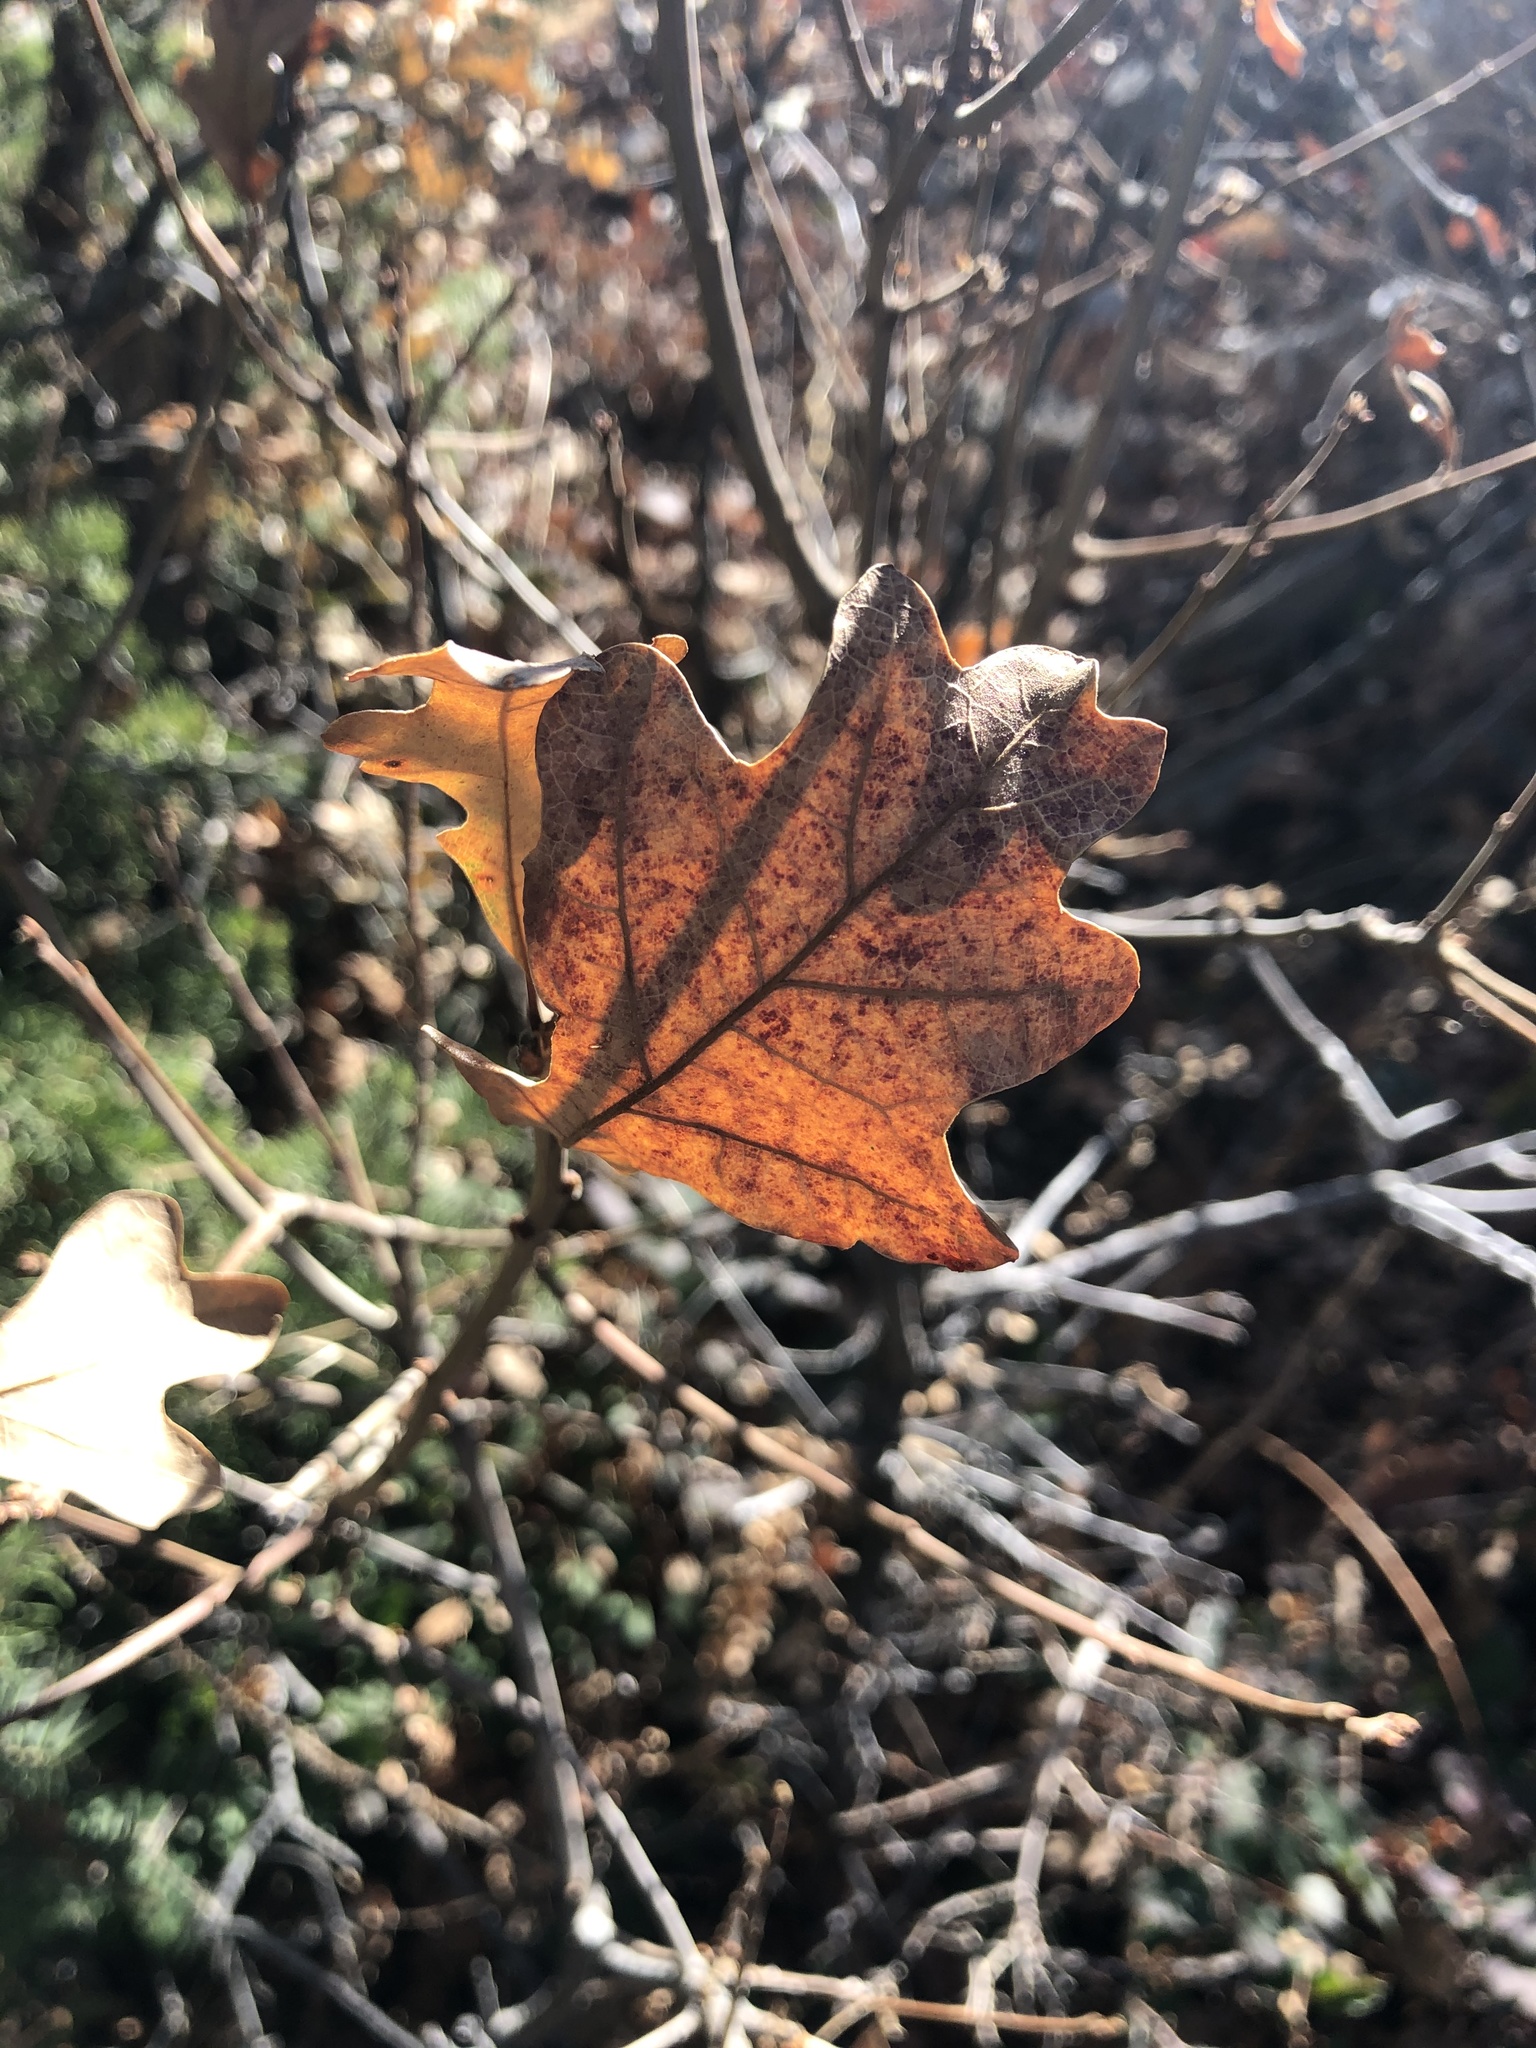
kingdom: Plantae
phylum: Tracheophyta
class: Magnoliopsida
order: Fagales
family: Fagaceae
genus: Quercus
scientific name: Quercus gambelii
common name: Gambel oak
